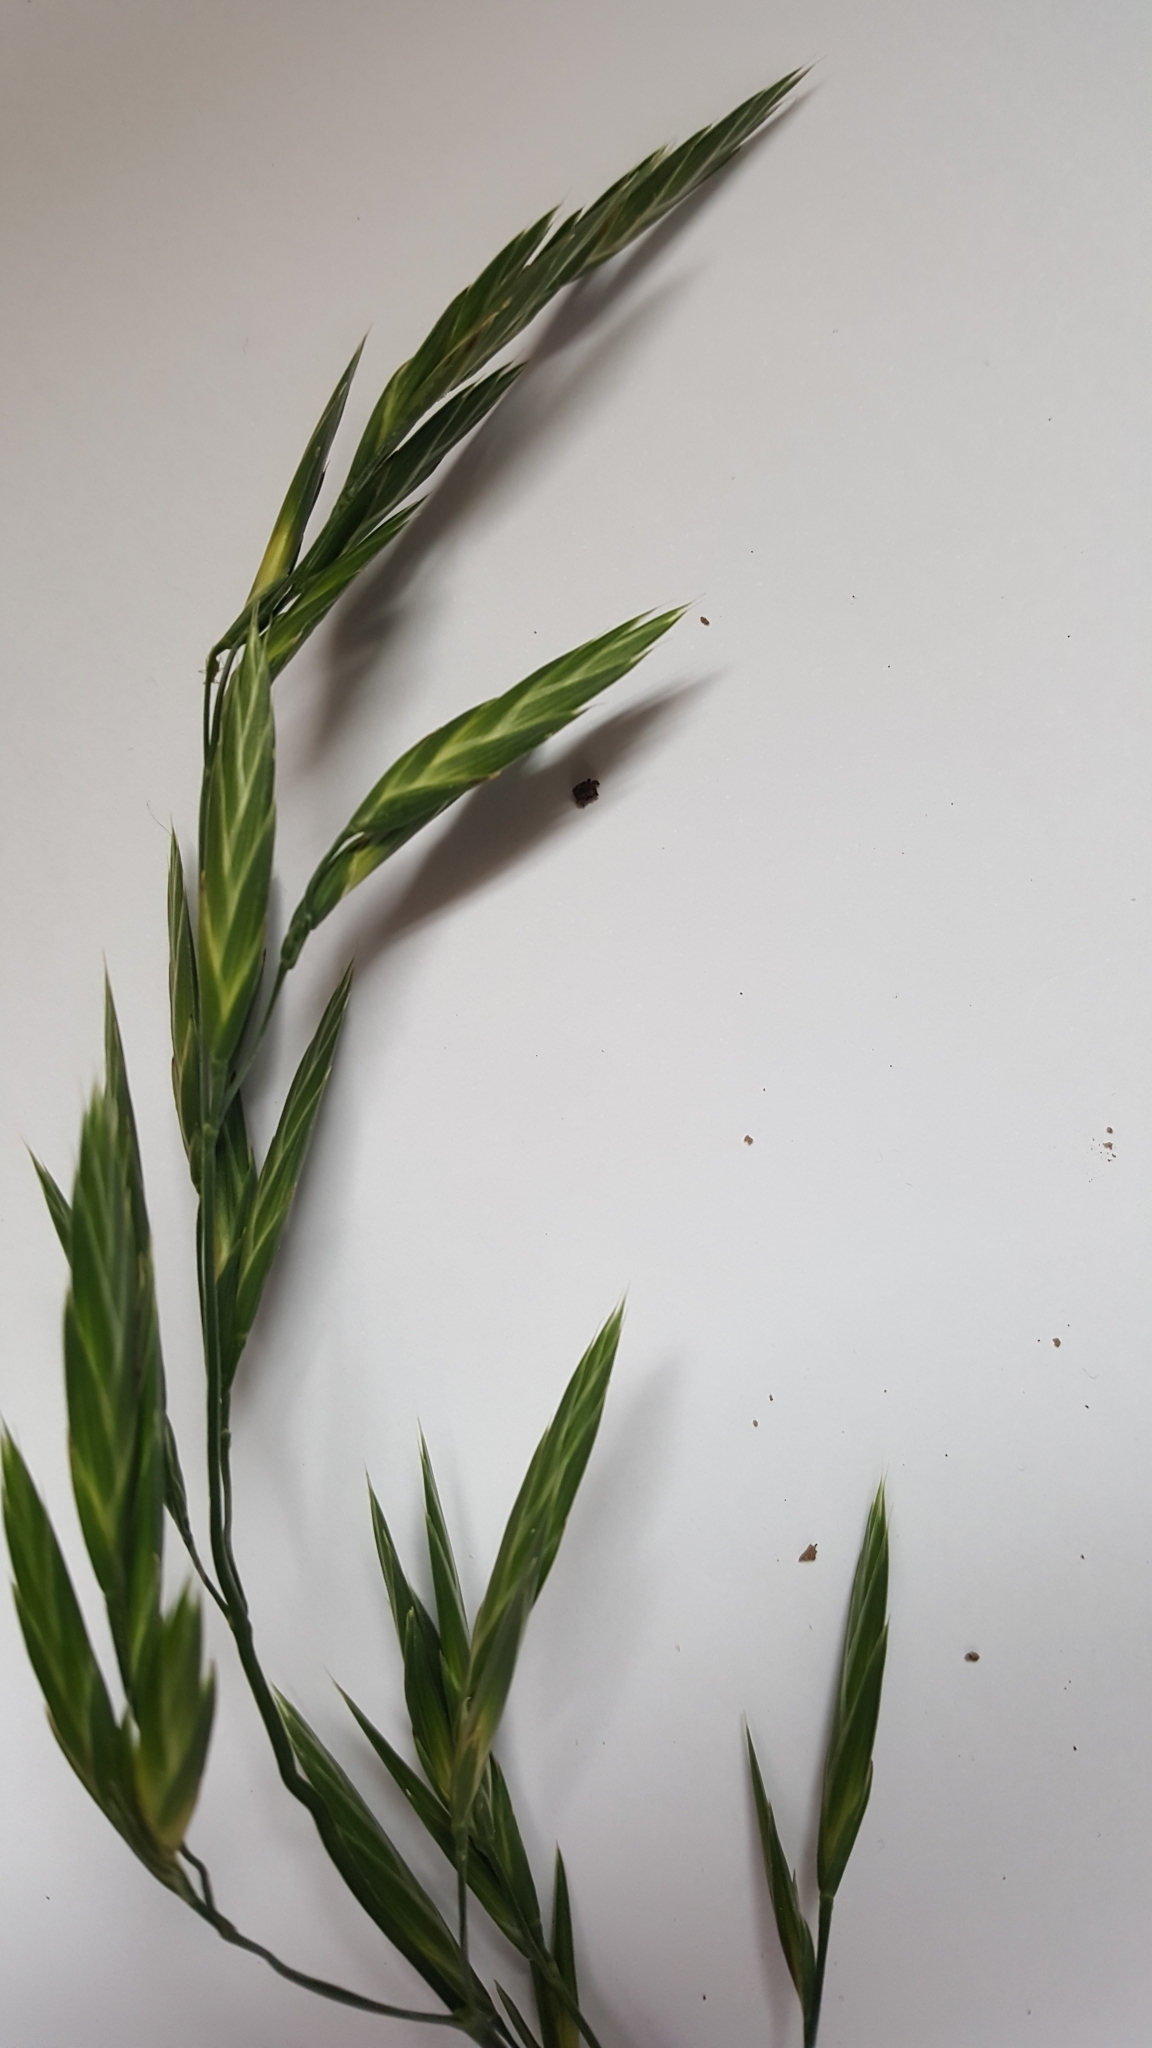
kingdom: Plantae
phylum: Tracheophyta
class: Liliopsida
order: Poales
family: Poaceae
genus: Bromus
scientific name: Bromus catharticus
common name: Rescuegrass
